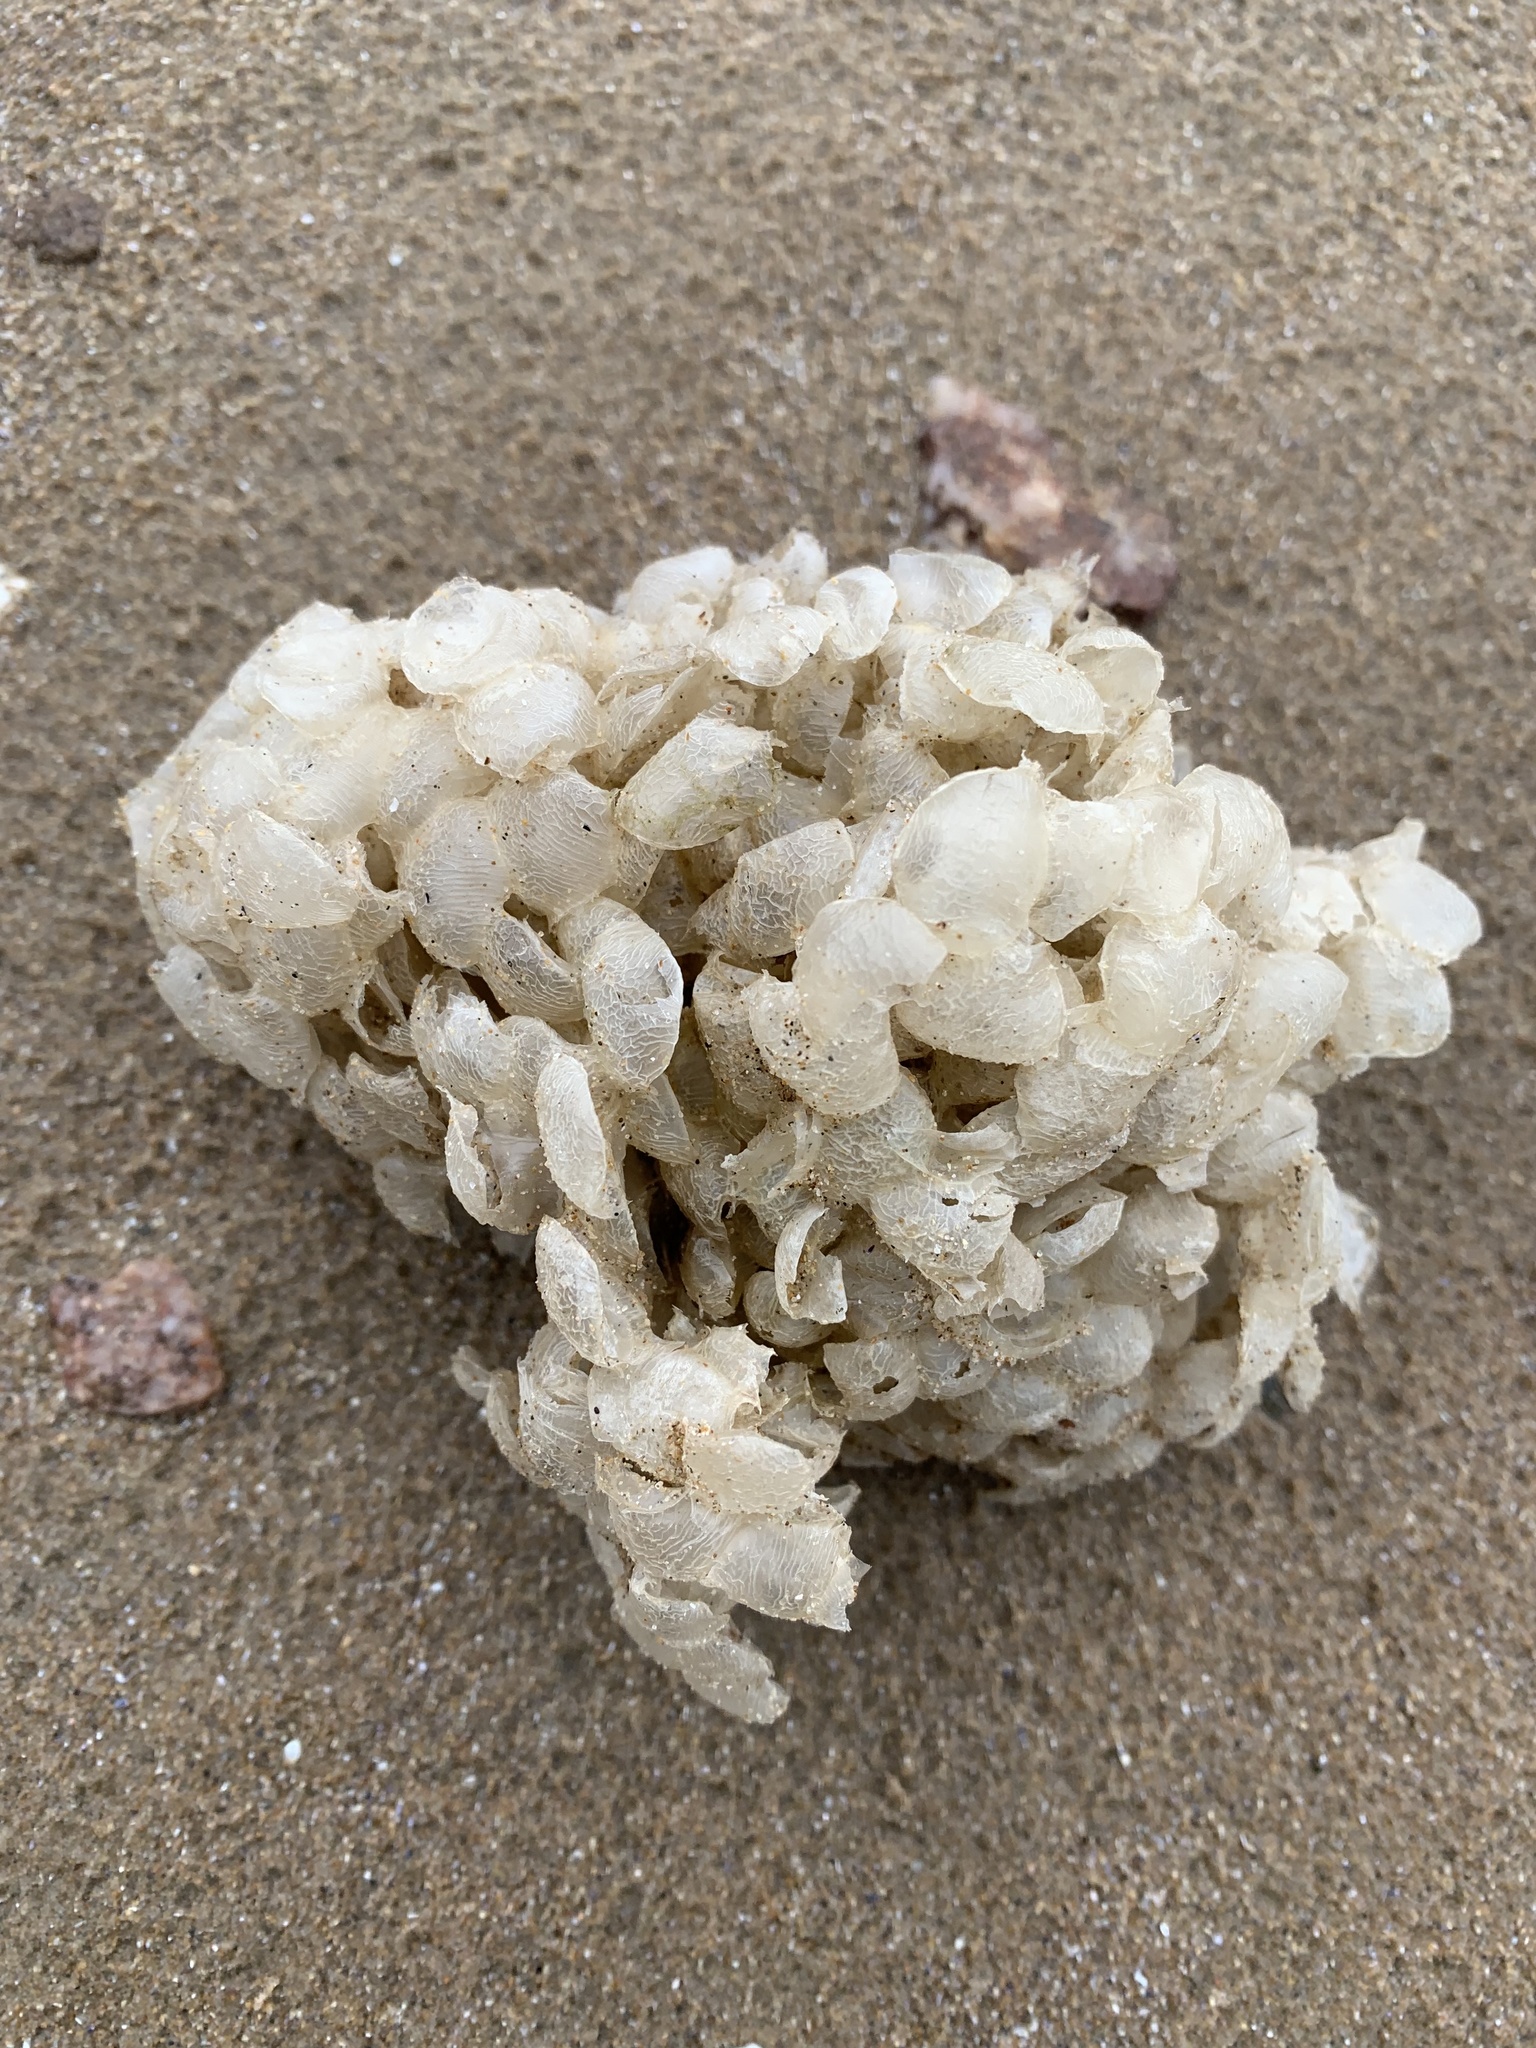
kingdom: Animalia
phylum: Mollusca
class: Gastropoda
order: Neogastropoda
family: Buccinidae
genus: Buccinum
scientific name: Buccinum undatum
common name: Common whelk
